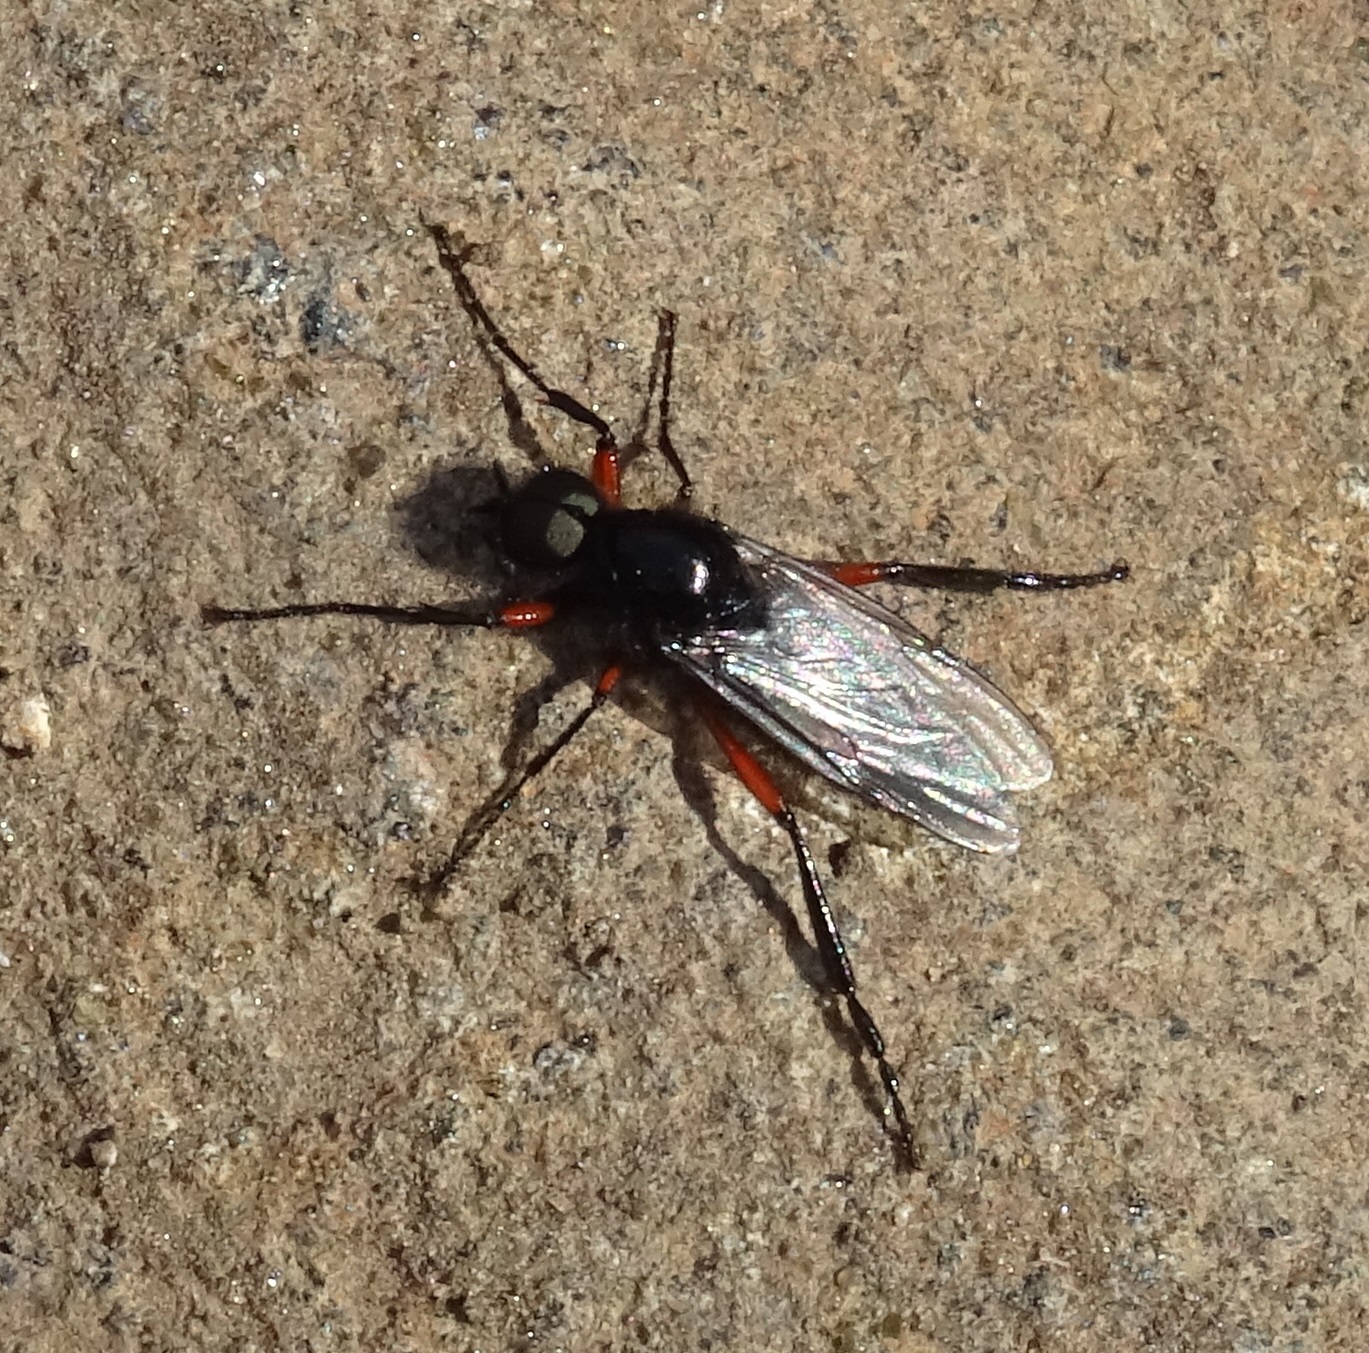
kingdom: Animalia
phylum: Arthropoda
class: Insecta
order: Diptera
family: Bibionidae
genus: Bibio
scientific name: Bibio pomonae
